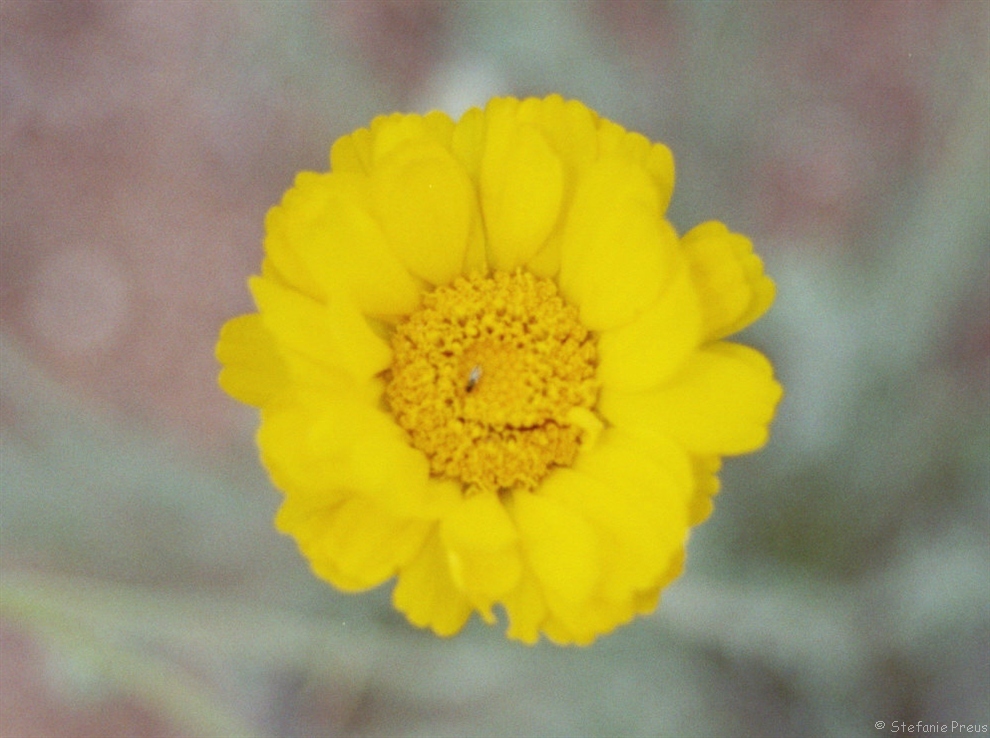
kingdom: Plantae
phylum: Tracheophyta
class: Magnoliopsida
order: Asterales
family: Asteraceae
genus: Baileya
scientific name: Baileya multiradiata
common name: Desert-marigold
